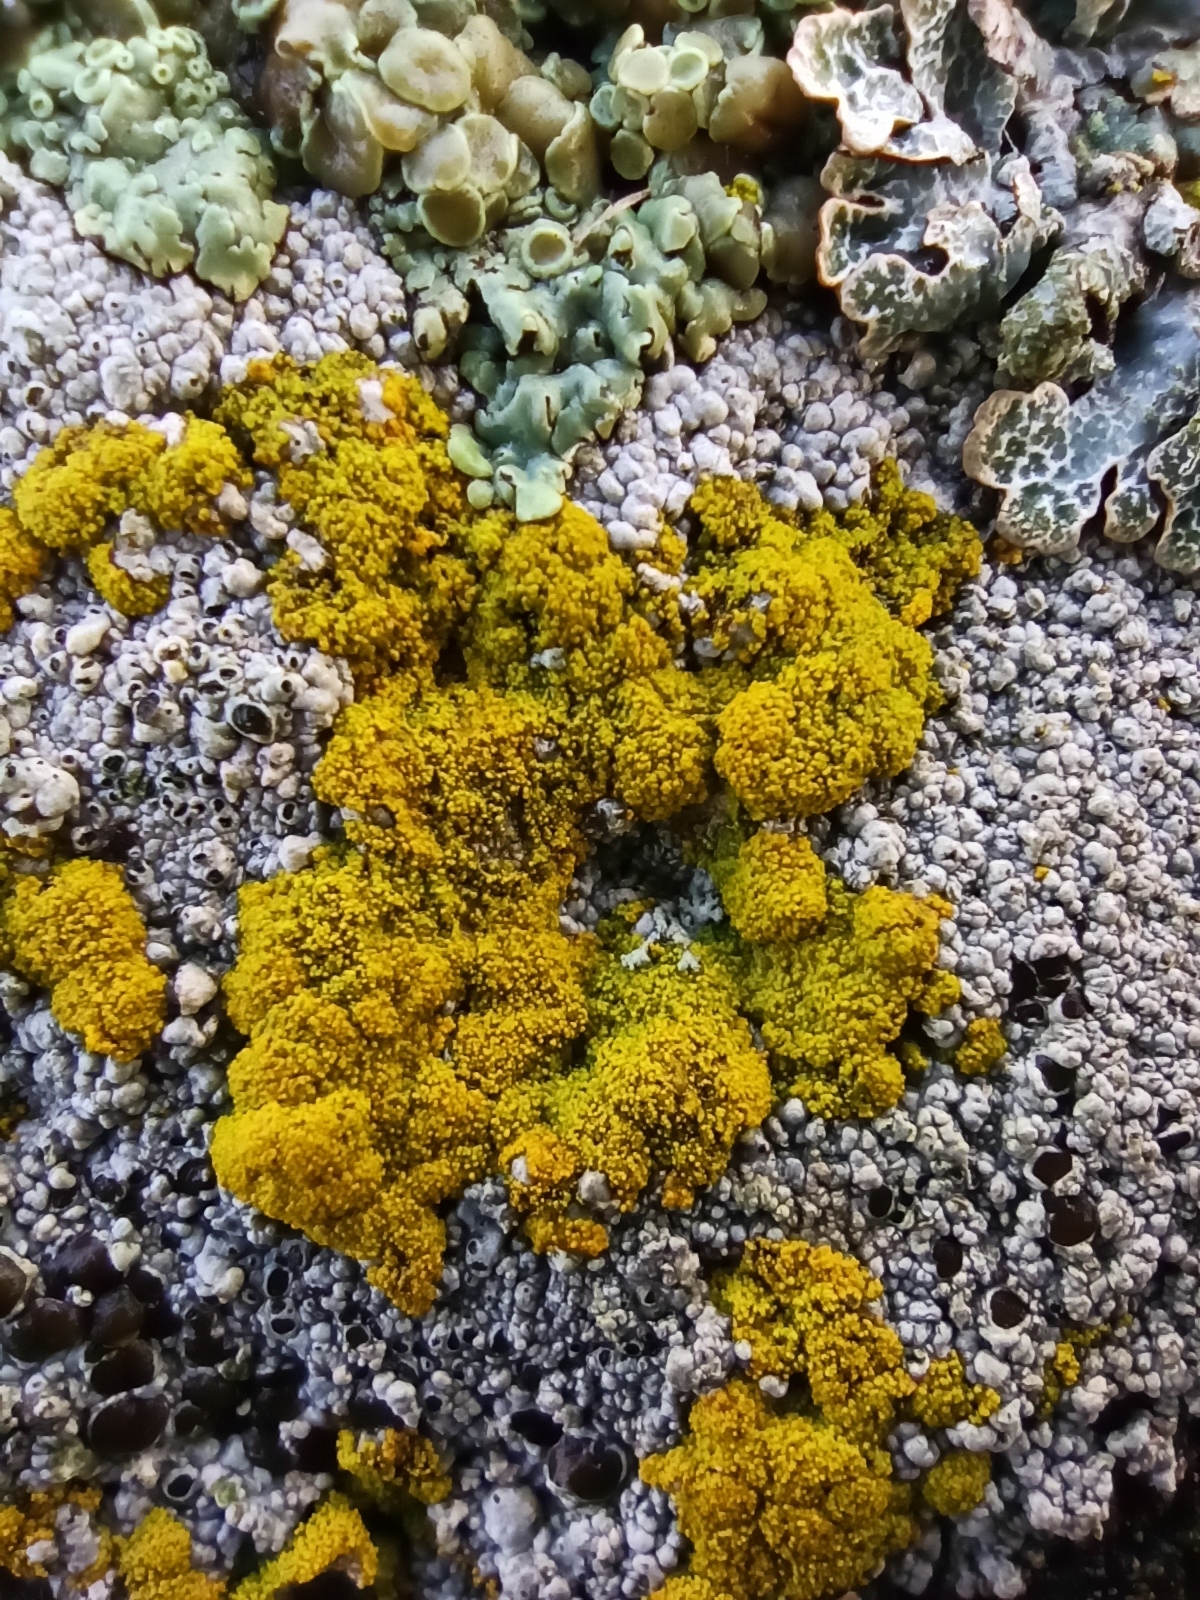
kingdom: Fungi
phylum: Ascomycota
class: Candelariomycetes
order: Candelariales
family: Candelariaceae
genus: Candelariella
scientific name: Candelariella coralliza
